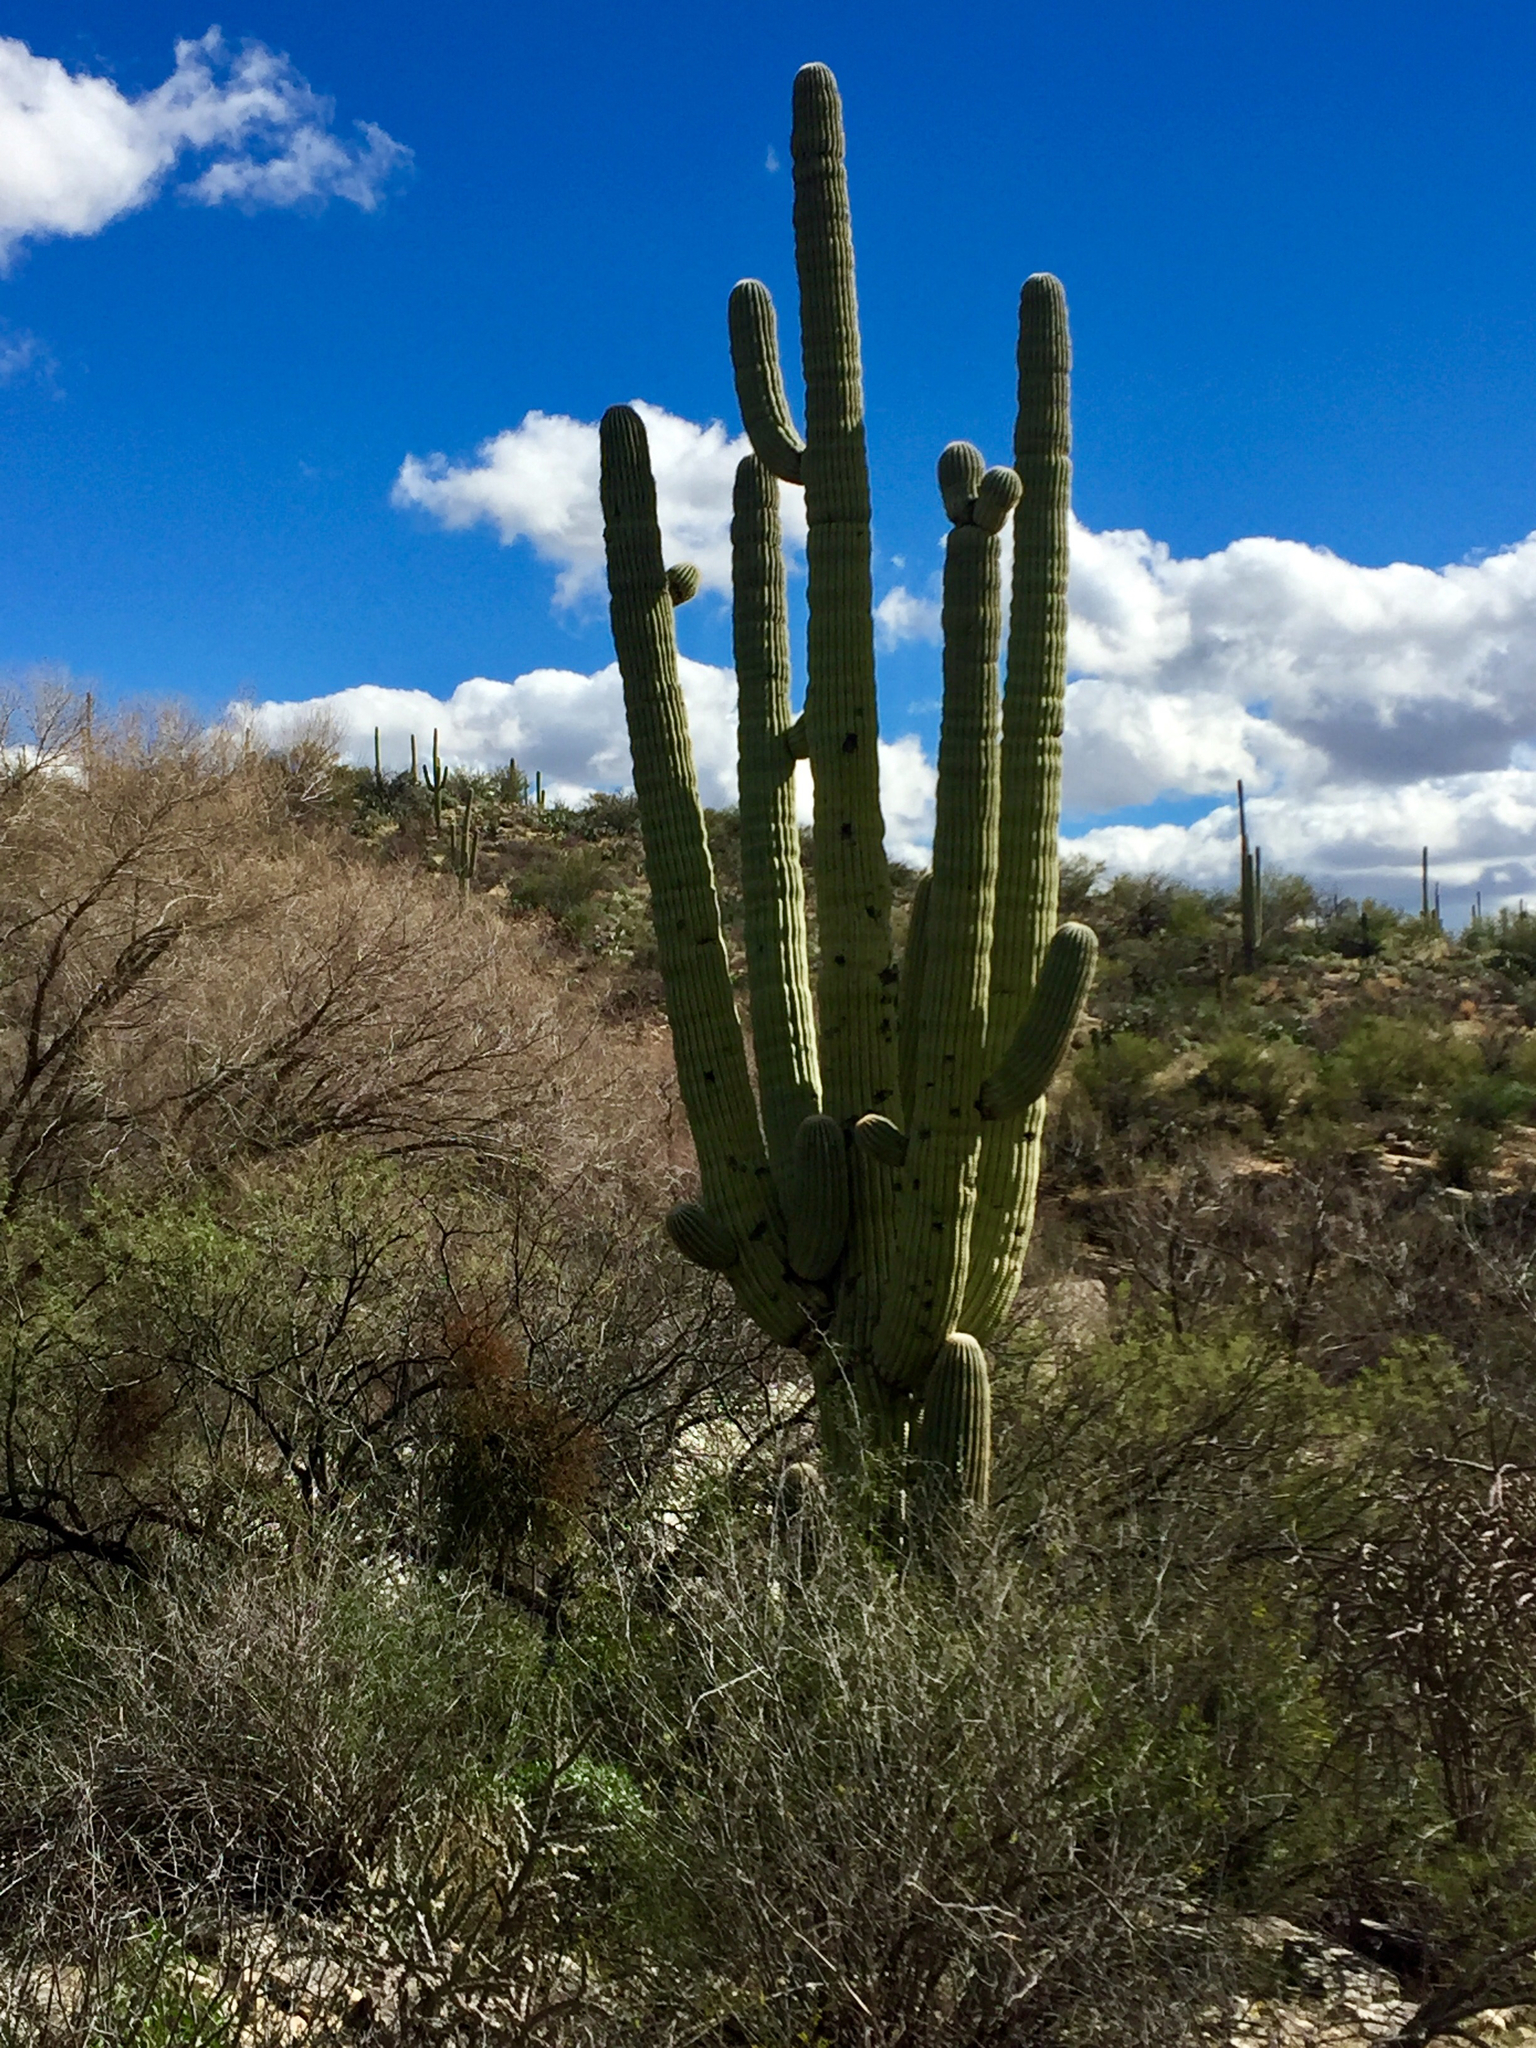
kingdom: Plantae
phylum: Tracheophyta
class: Magnoliopsida
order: Caryophyllales
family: Cactaceae
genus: Carnegiea
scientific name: Carnegiea gigantea
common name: Saguaro
